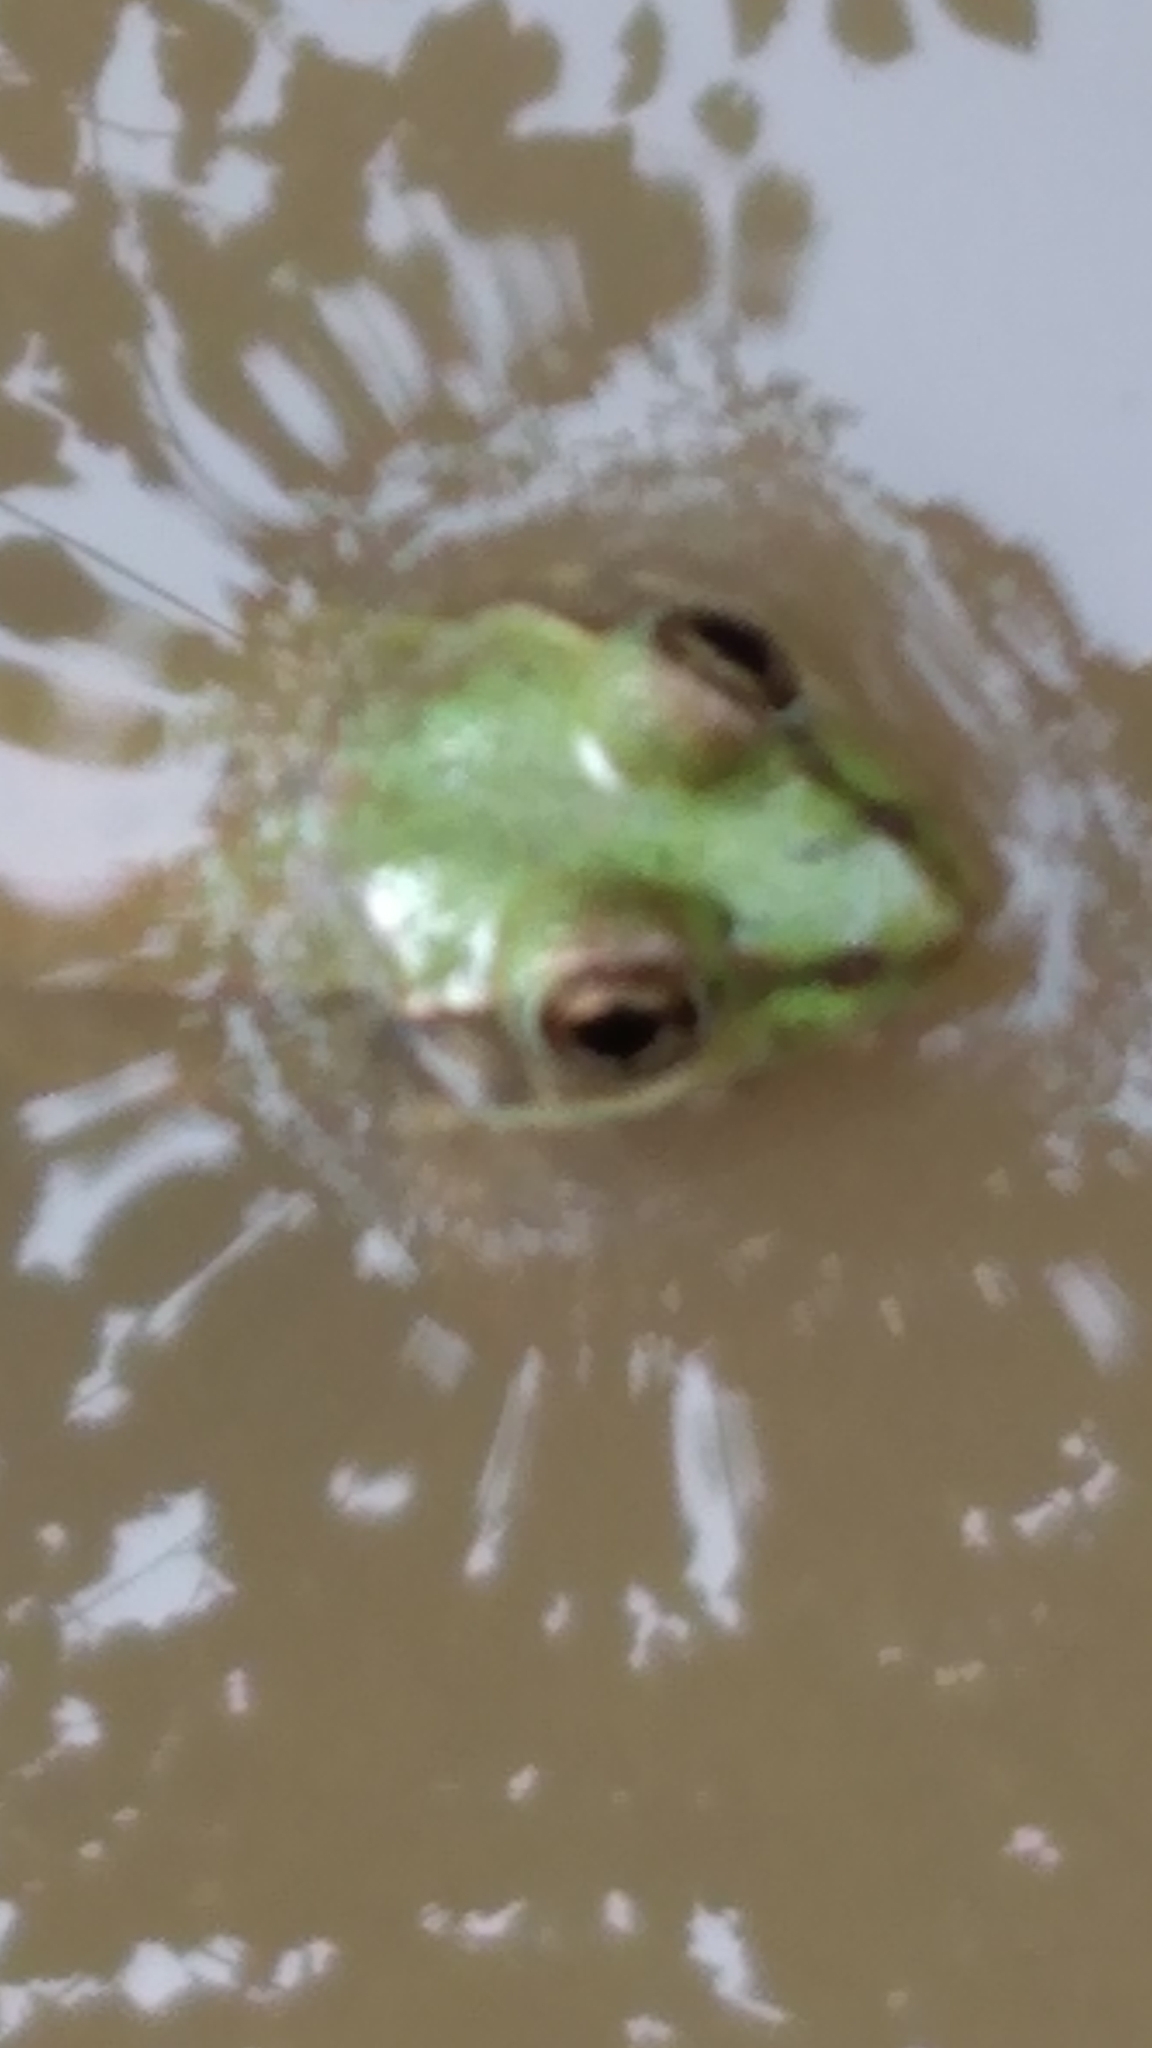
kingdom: Animalia
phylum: Chordata
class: Amphibia
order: Anura
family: Ranidae
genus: Lithobates
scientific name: Lithobates clamitans
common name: Green frog
